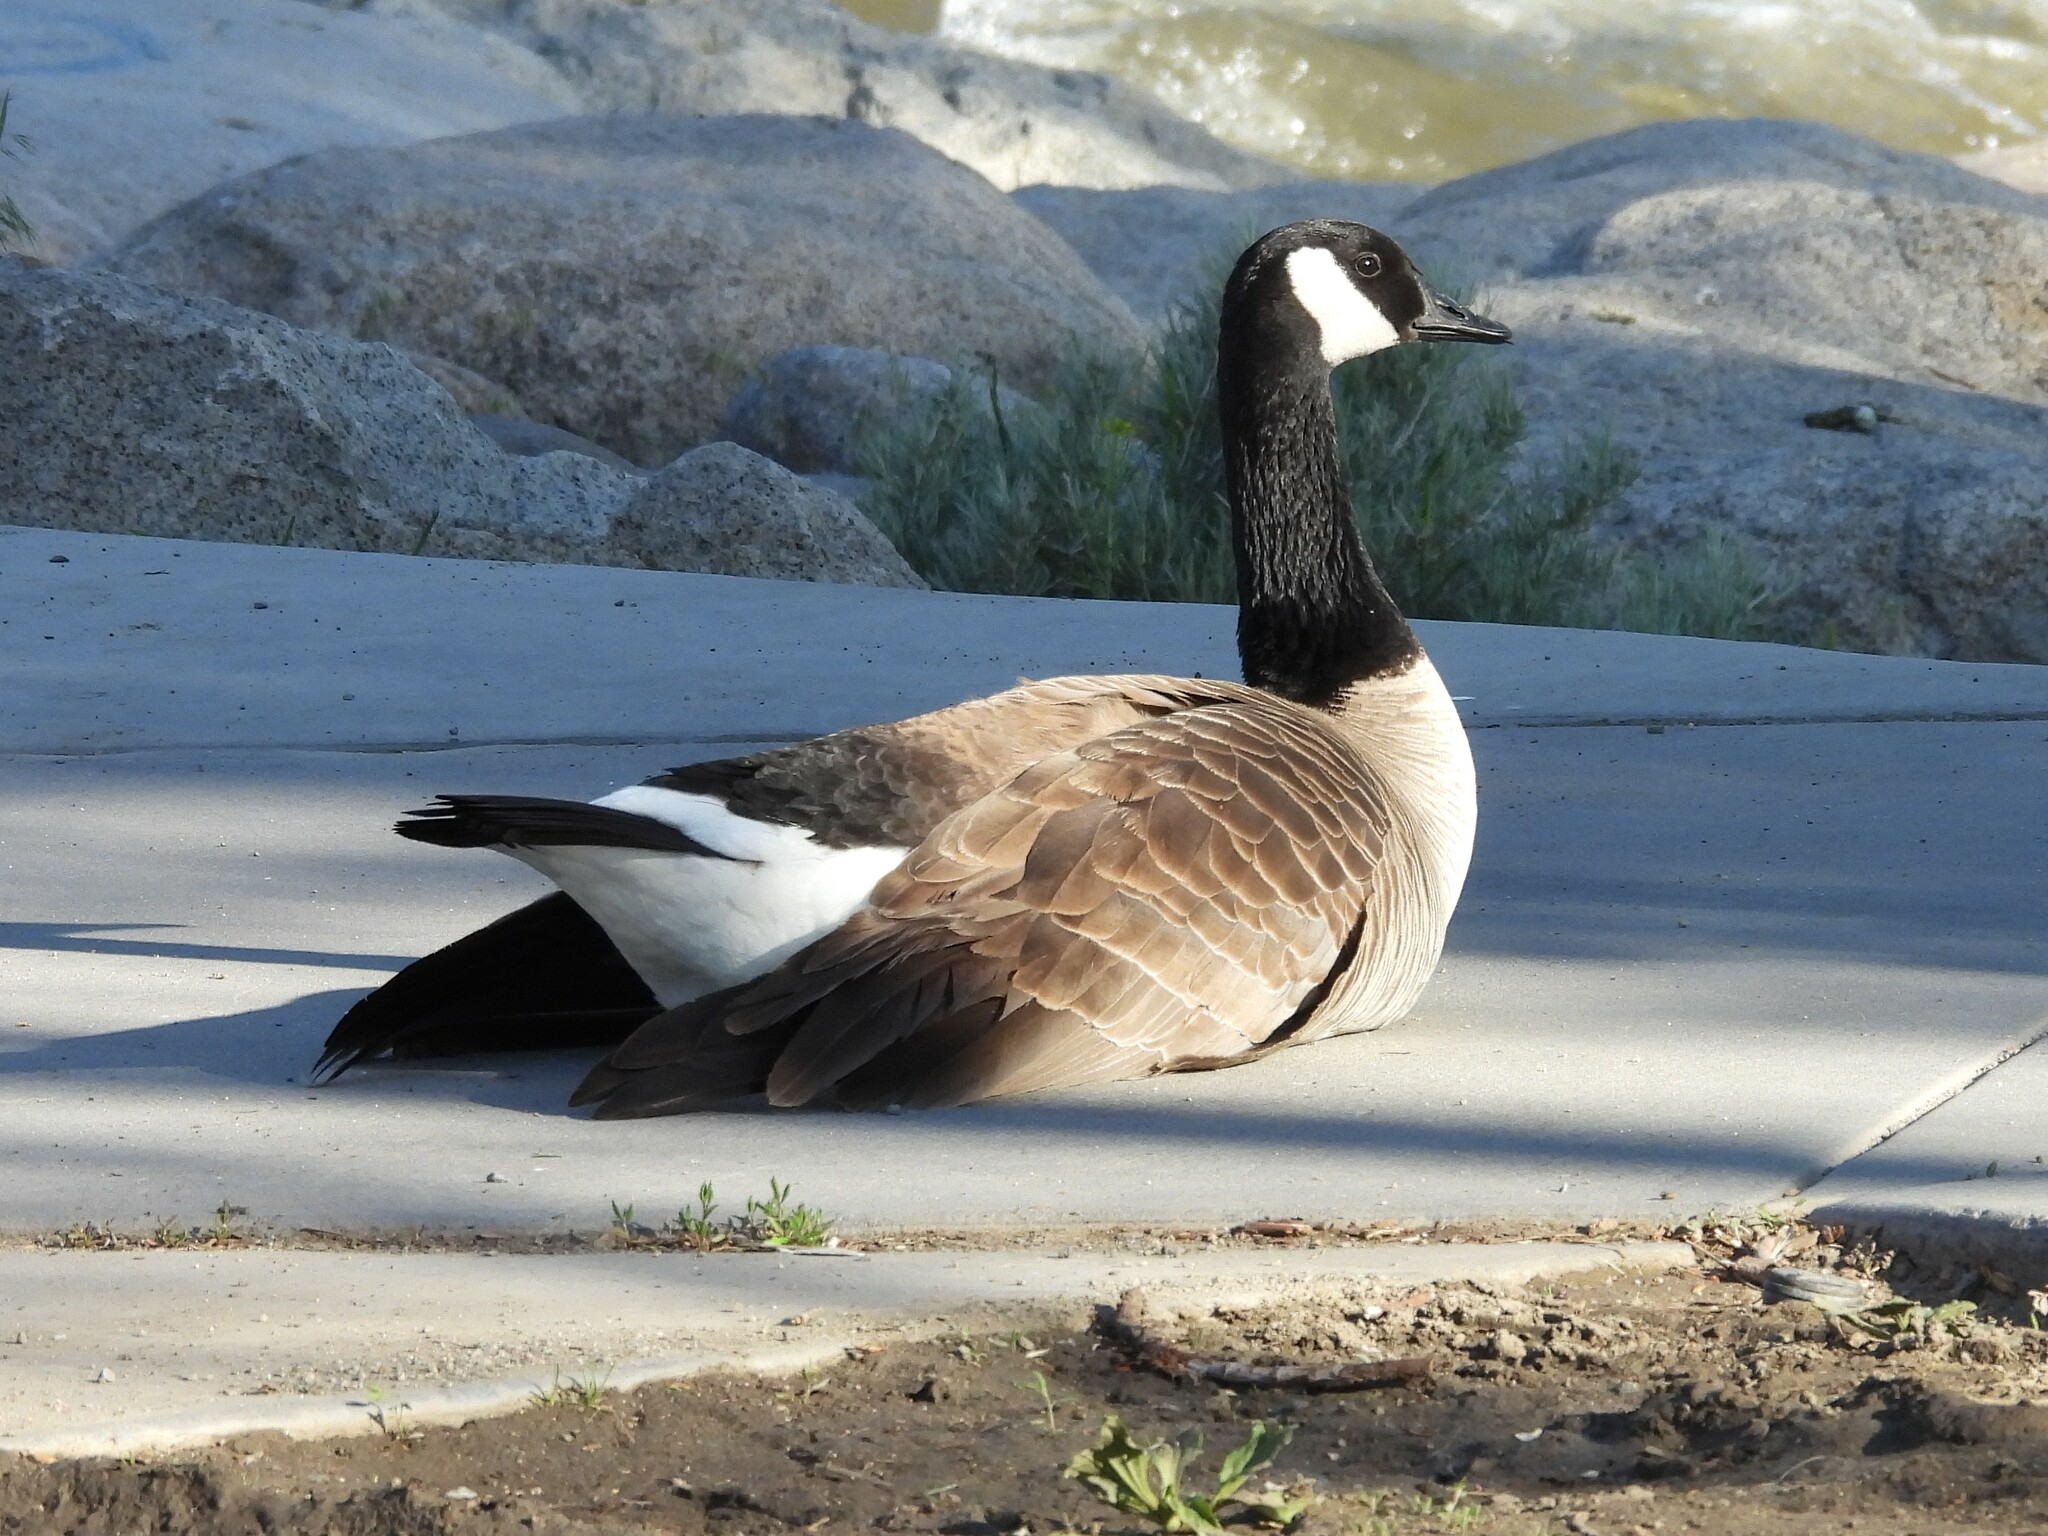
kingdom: Animalia
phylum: Chordata
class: Aves
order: Anseriformes
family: Anatidae
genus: Branta
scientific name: Branta canadensis
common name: Canada goose
